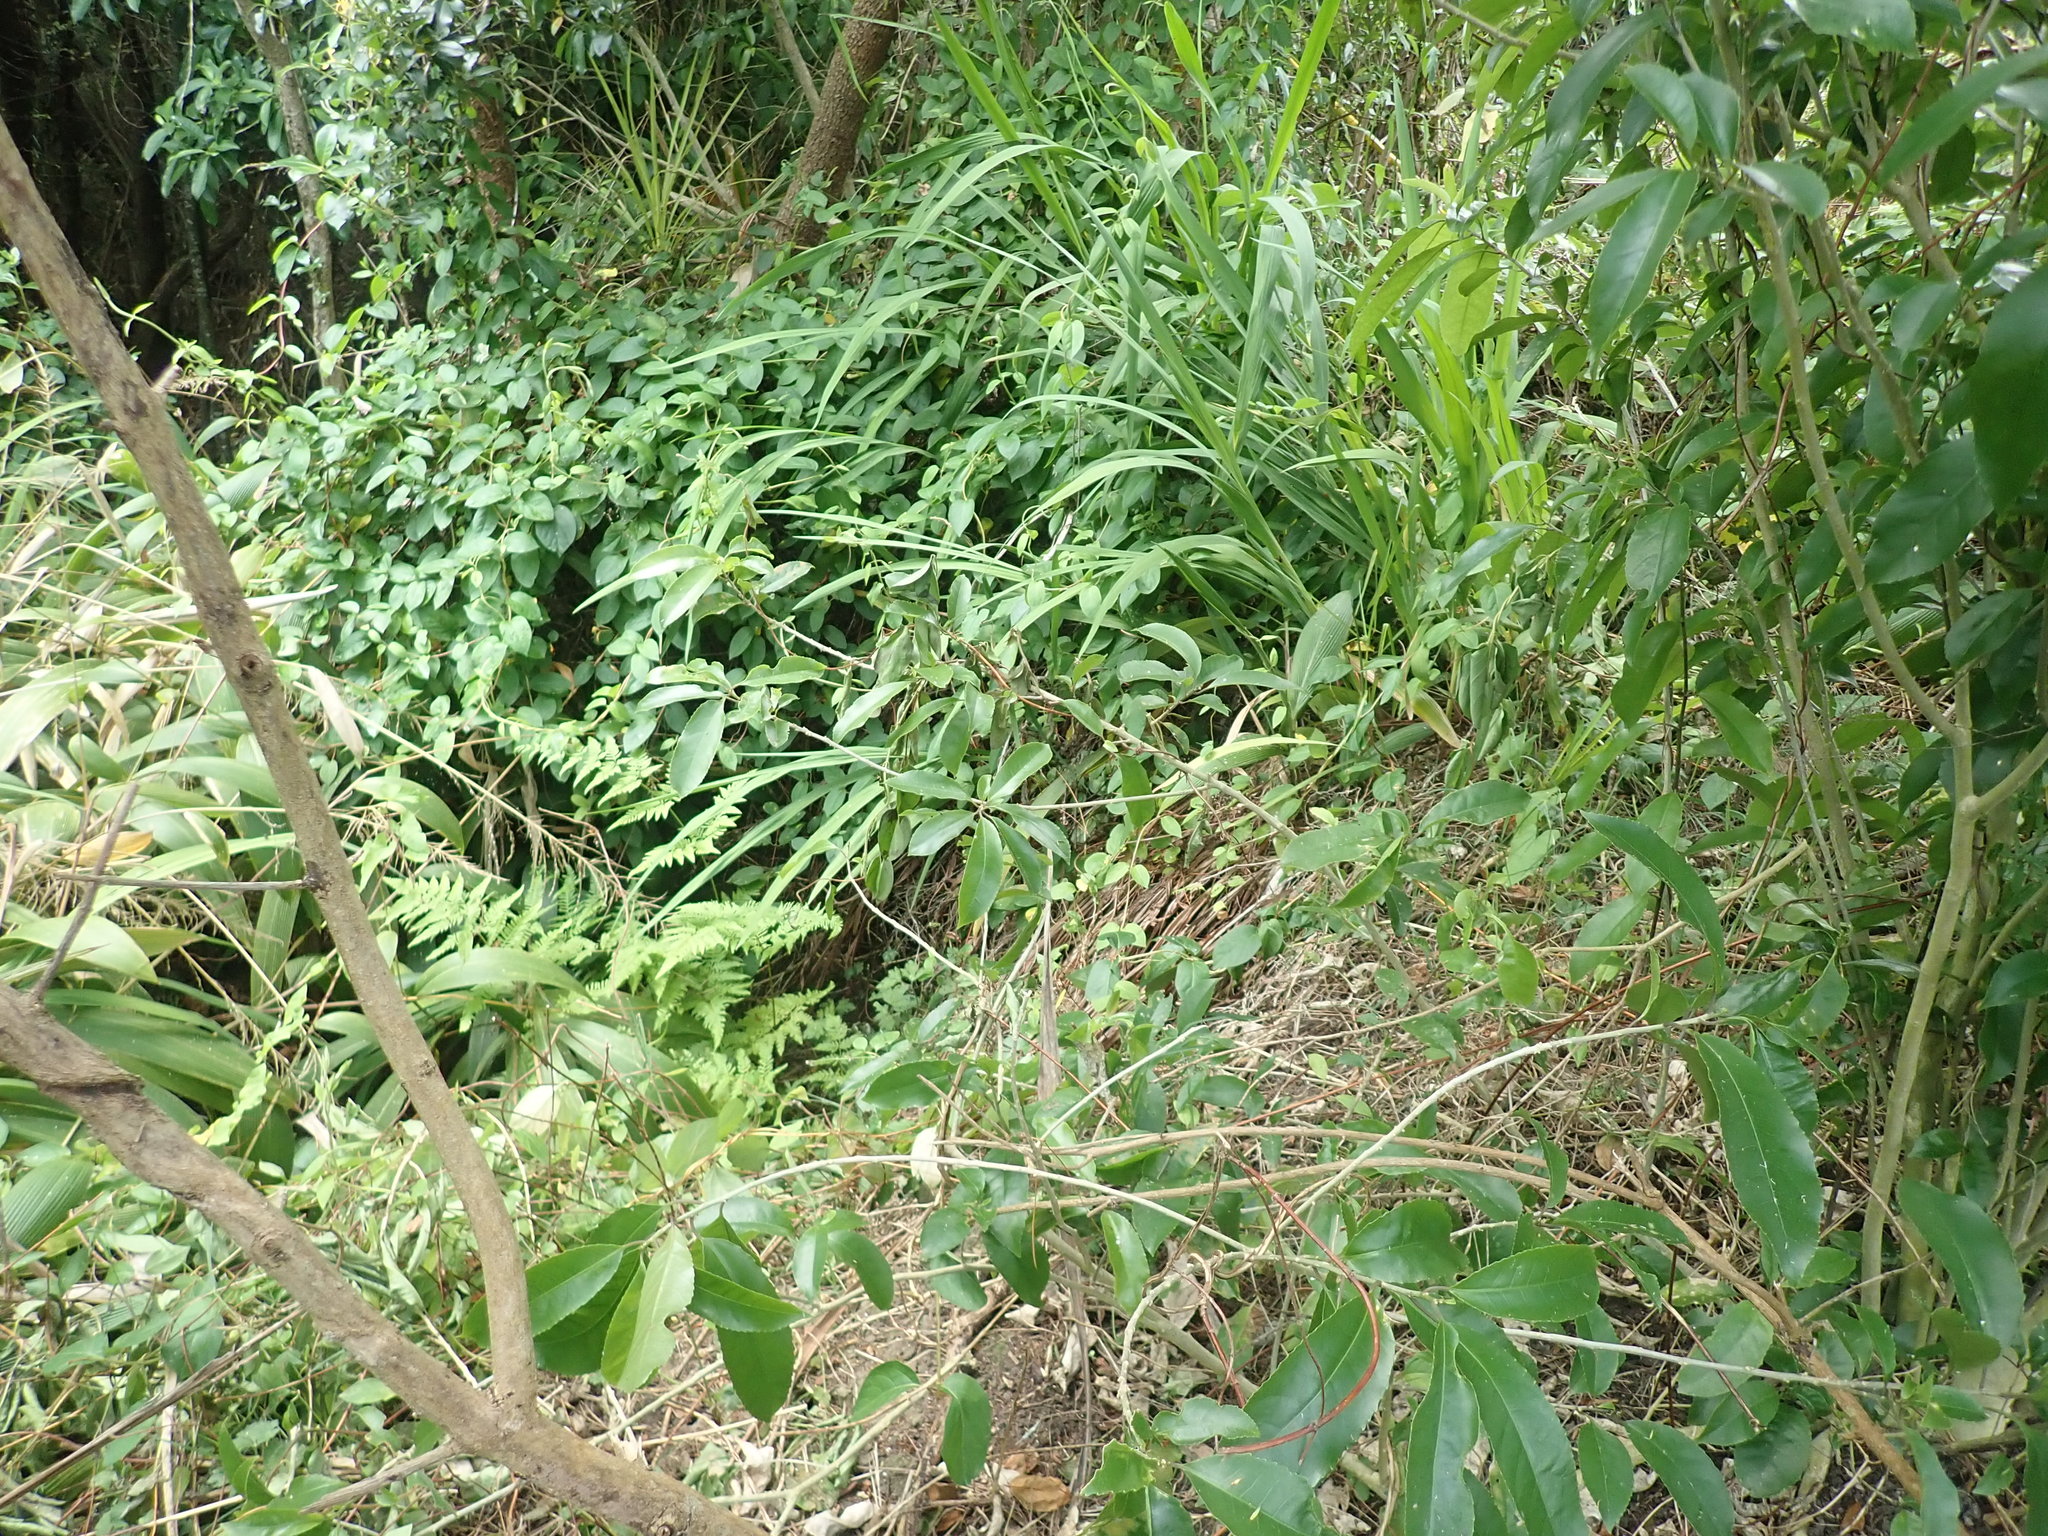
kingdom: Plantae
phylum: Tracheophyta
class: Polypodiopsida
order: Polypodiales
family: Pteridaceae
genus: Pteris
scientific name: Pteris tremula
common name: Australian brake
